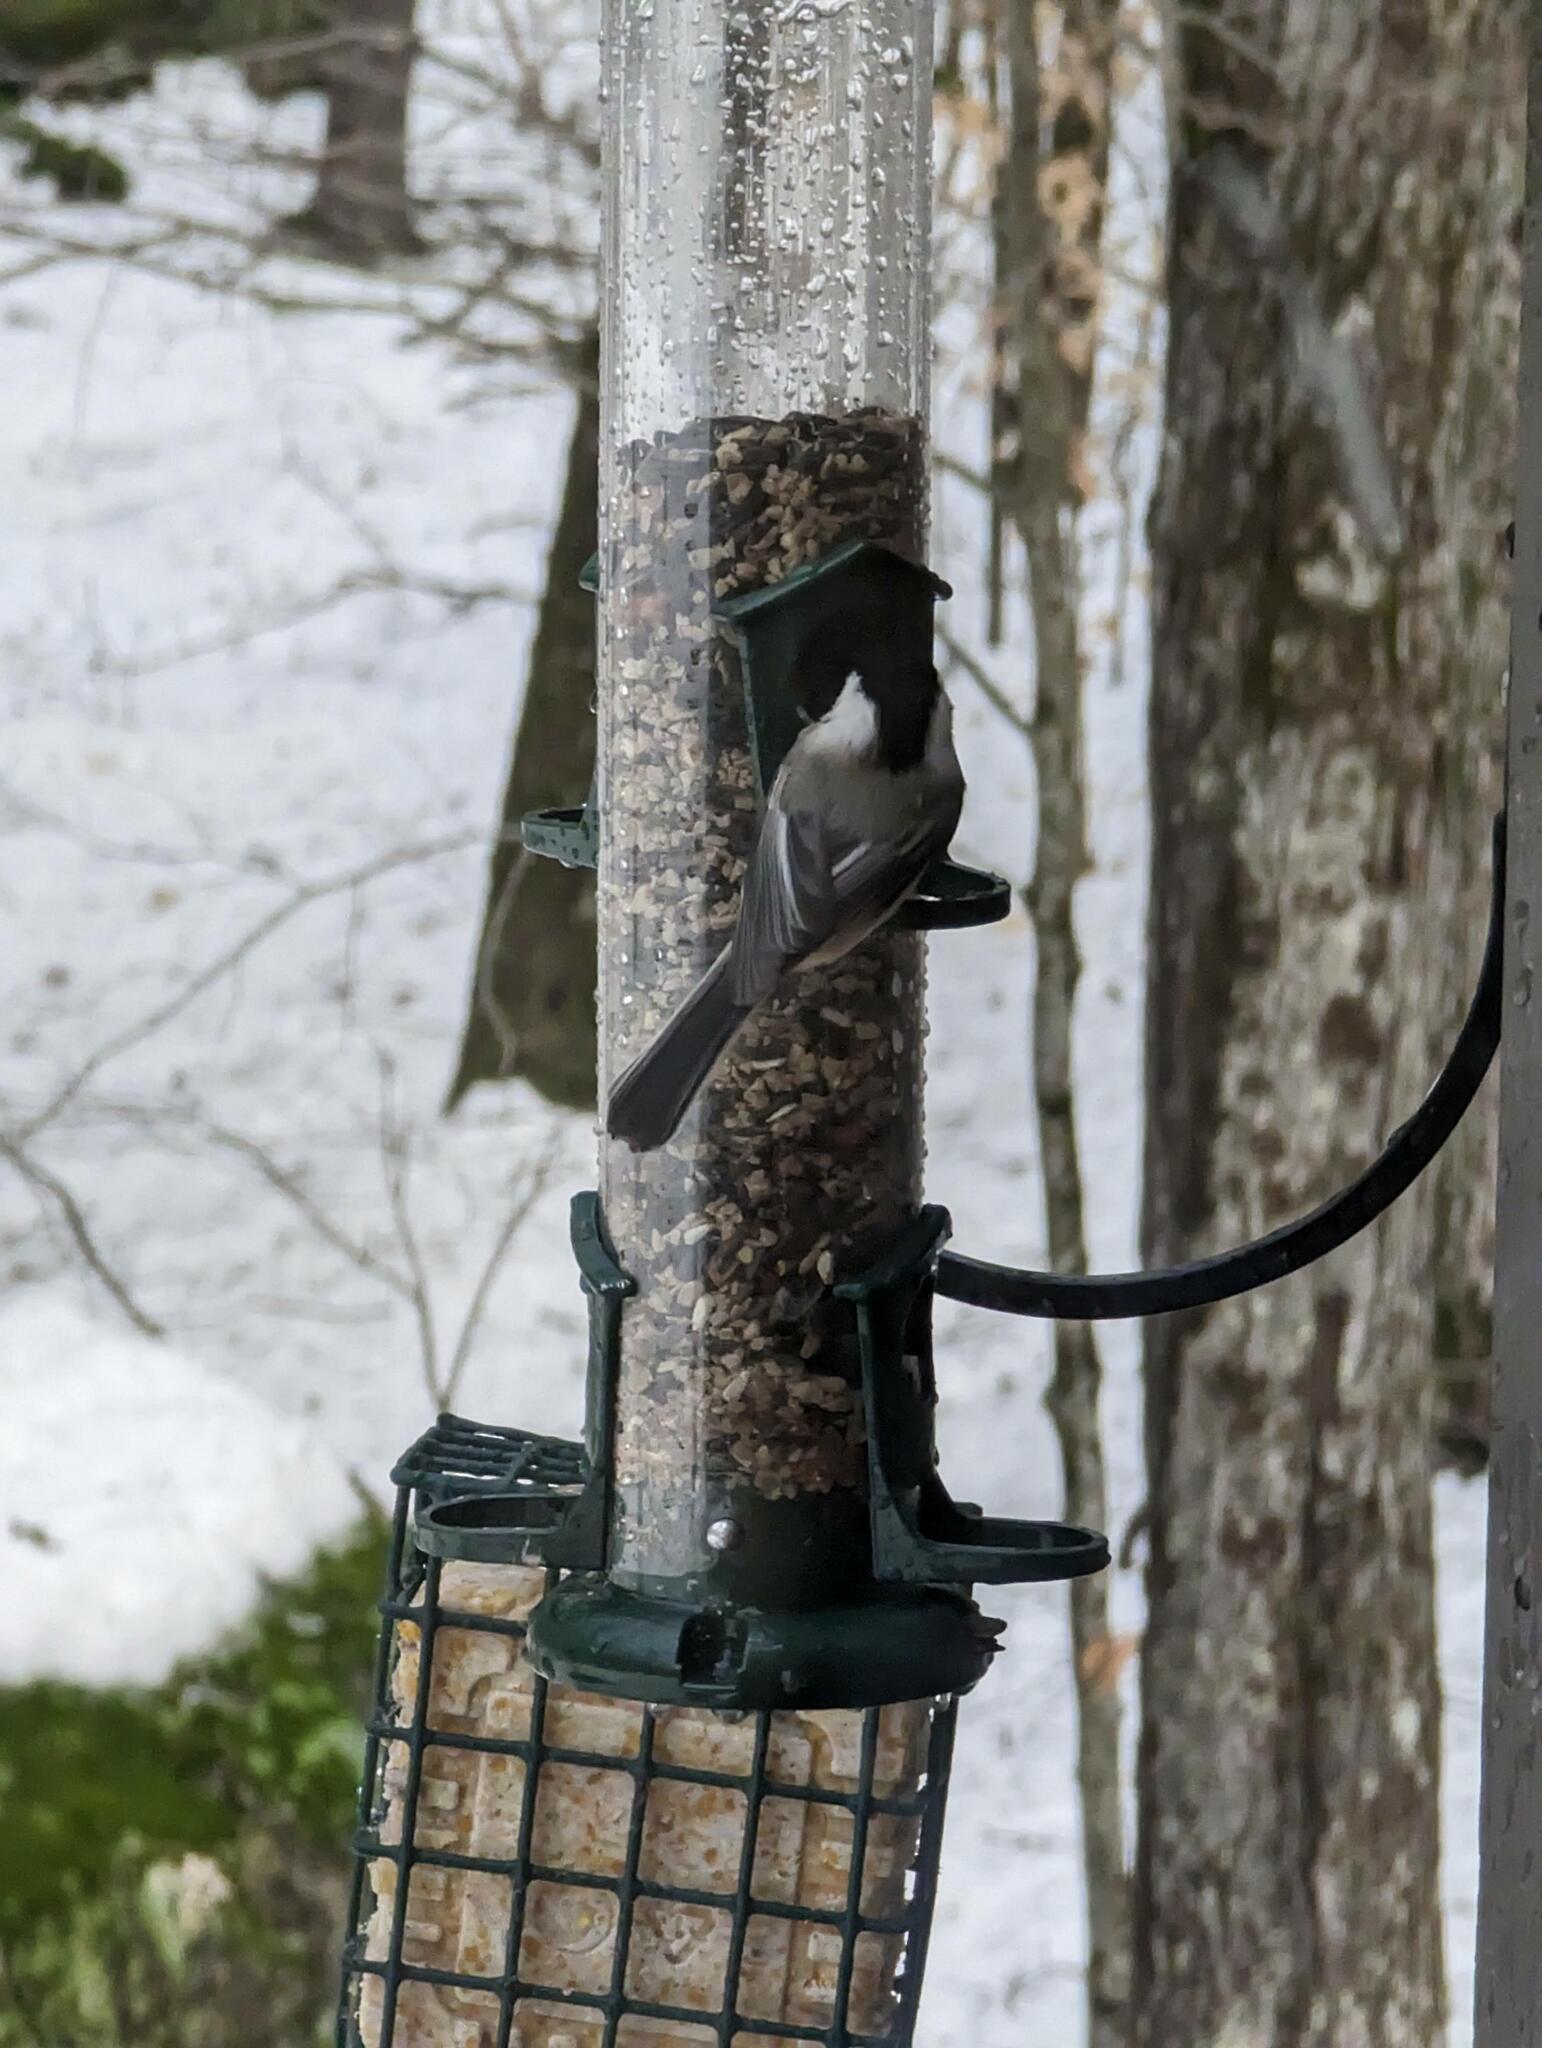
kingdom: Animalia
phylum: Chordata
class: Aves
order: Passeriformes
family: Paridae
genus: Poecile
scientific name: Poecile atricapillus
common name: Black-capped chickadee
